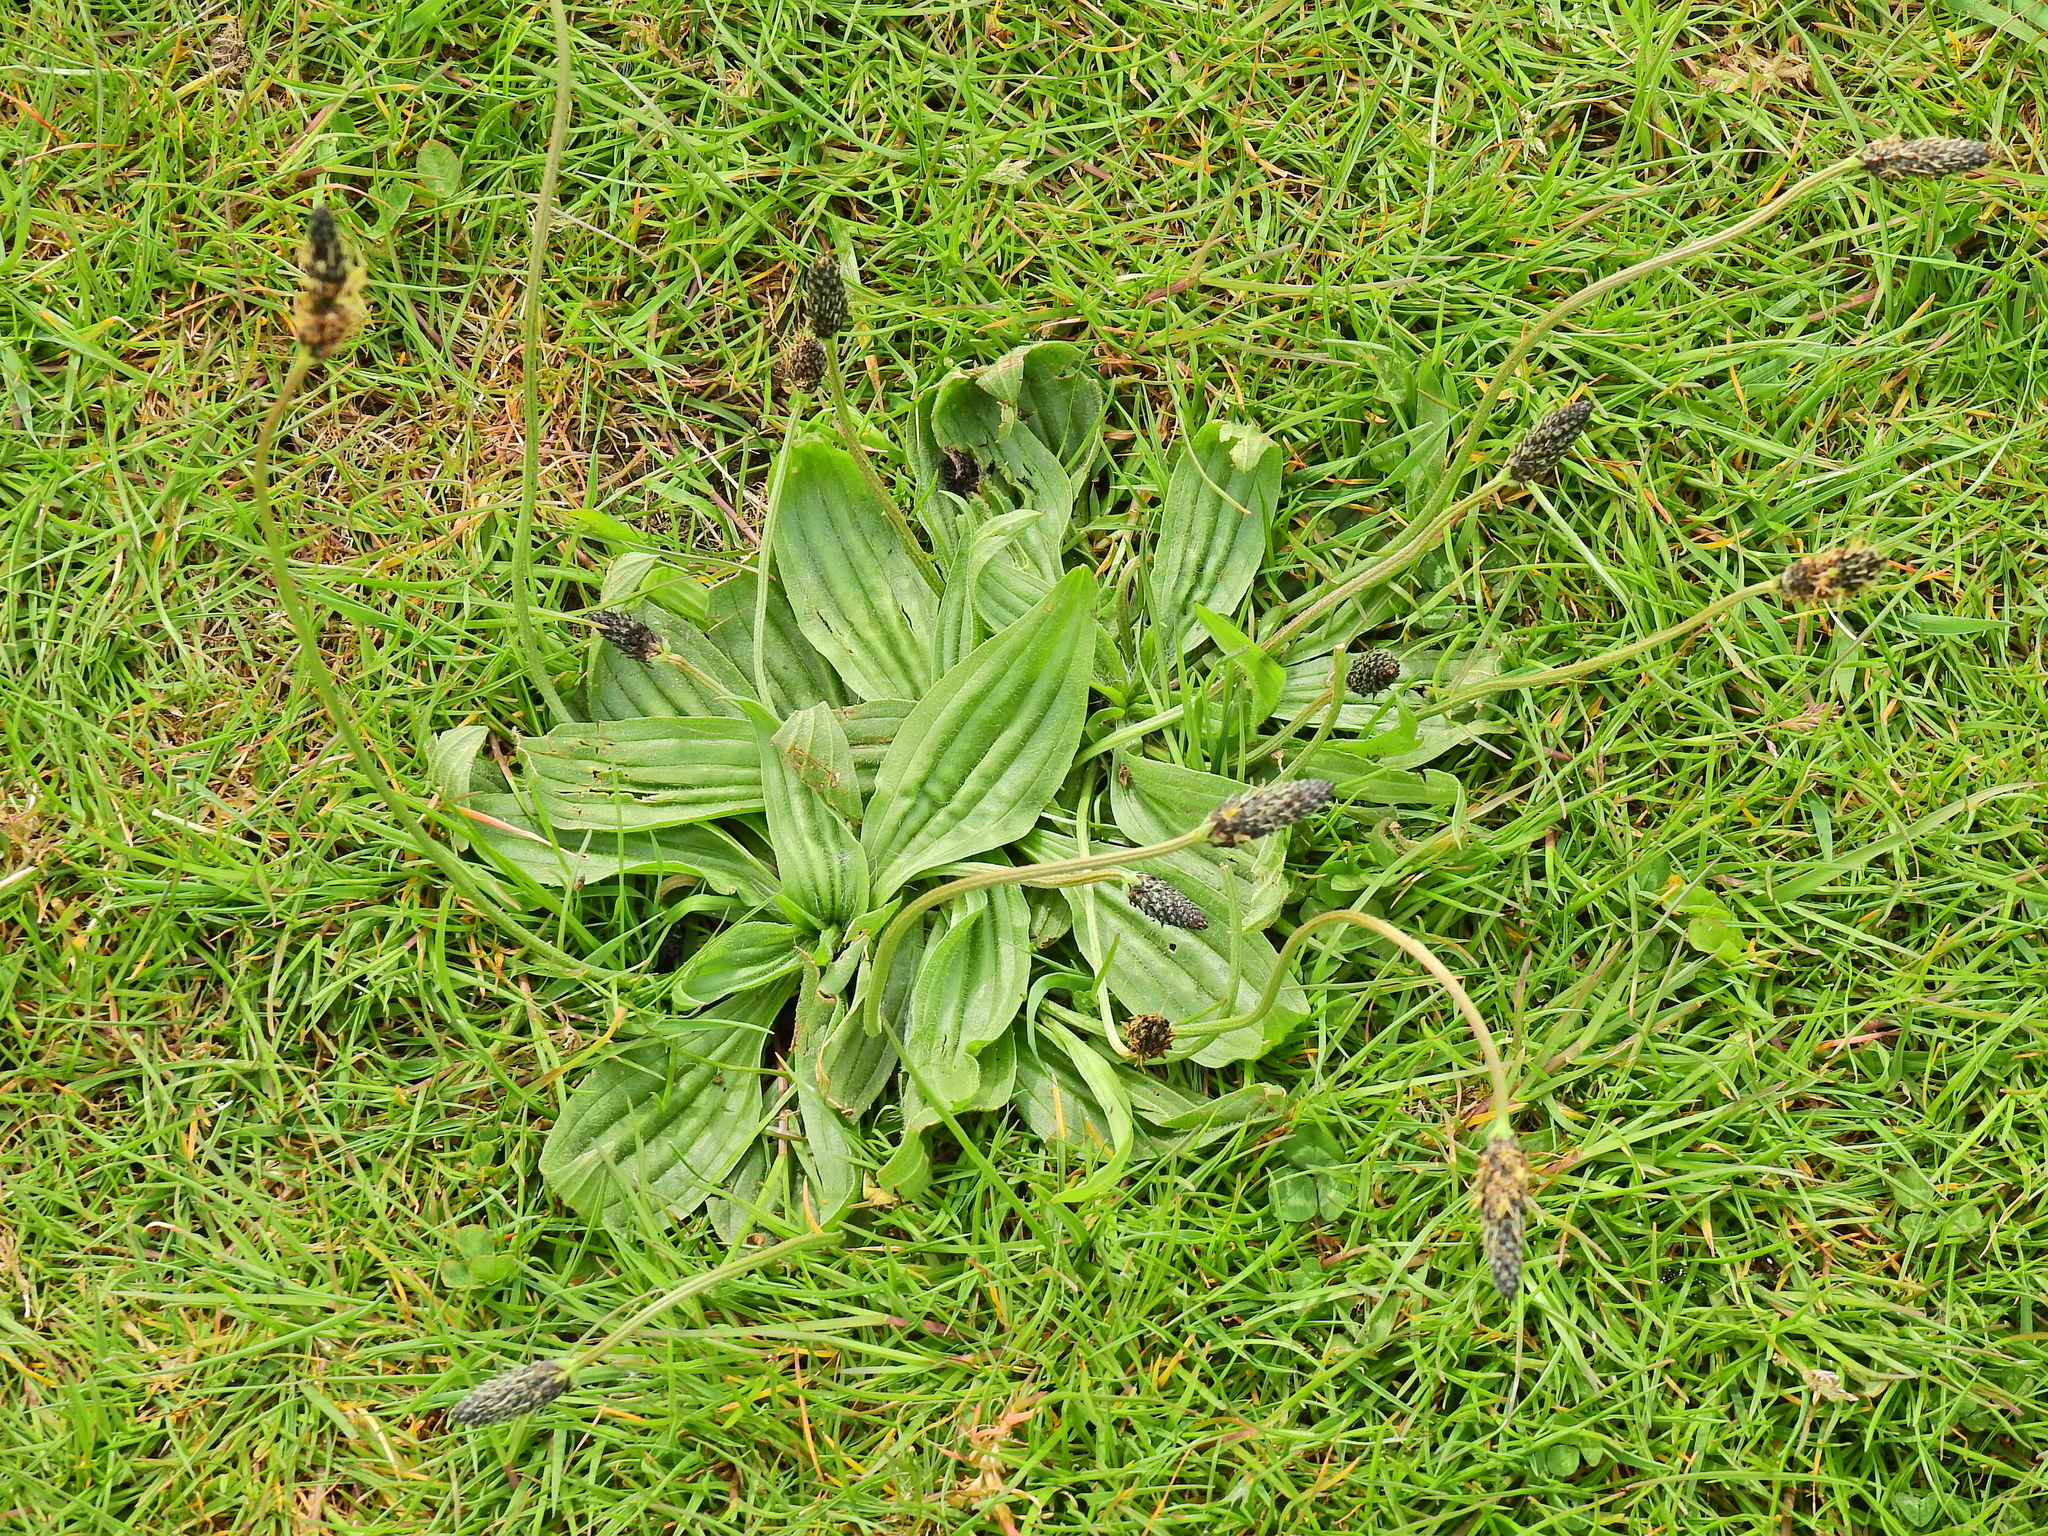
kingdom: Plantae
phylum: Tracheophyta
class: Magnoliopsida
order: Lamiales
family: Plantaginaceae
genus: Plantago
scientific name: Plantago lanceolata
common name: Ribwort plantain
